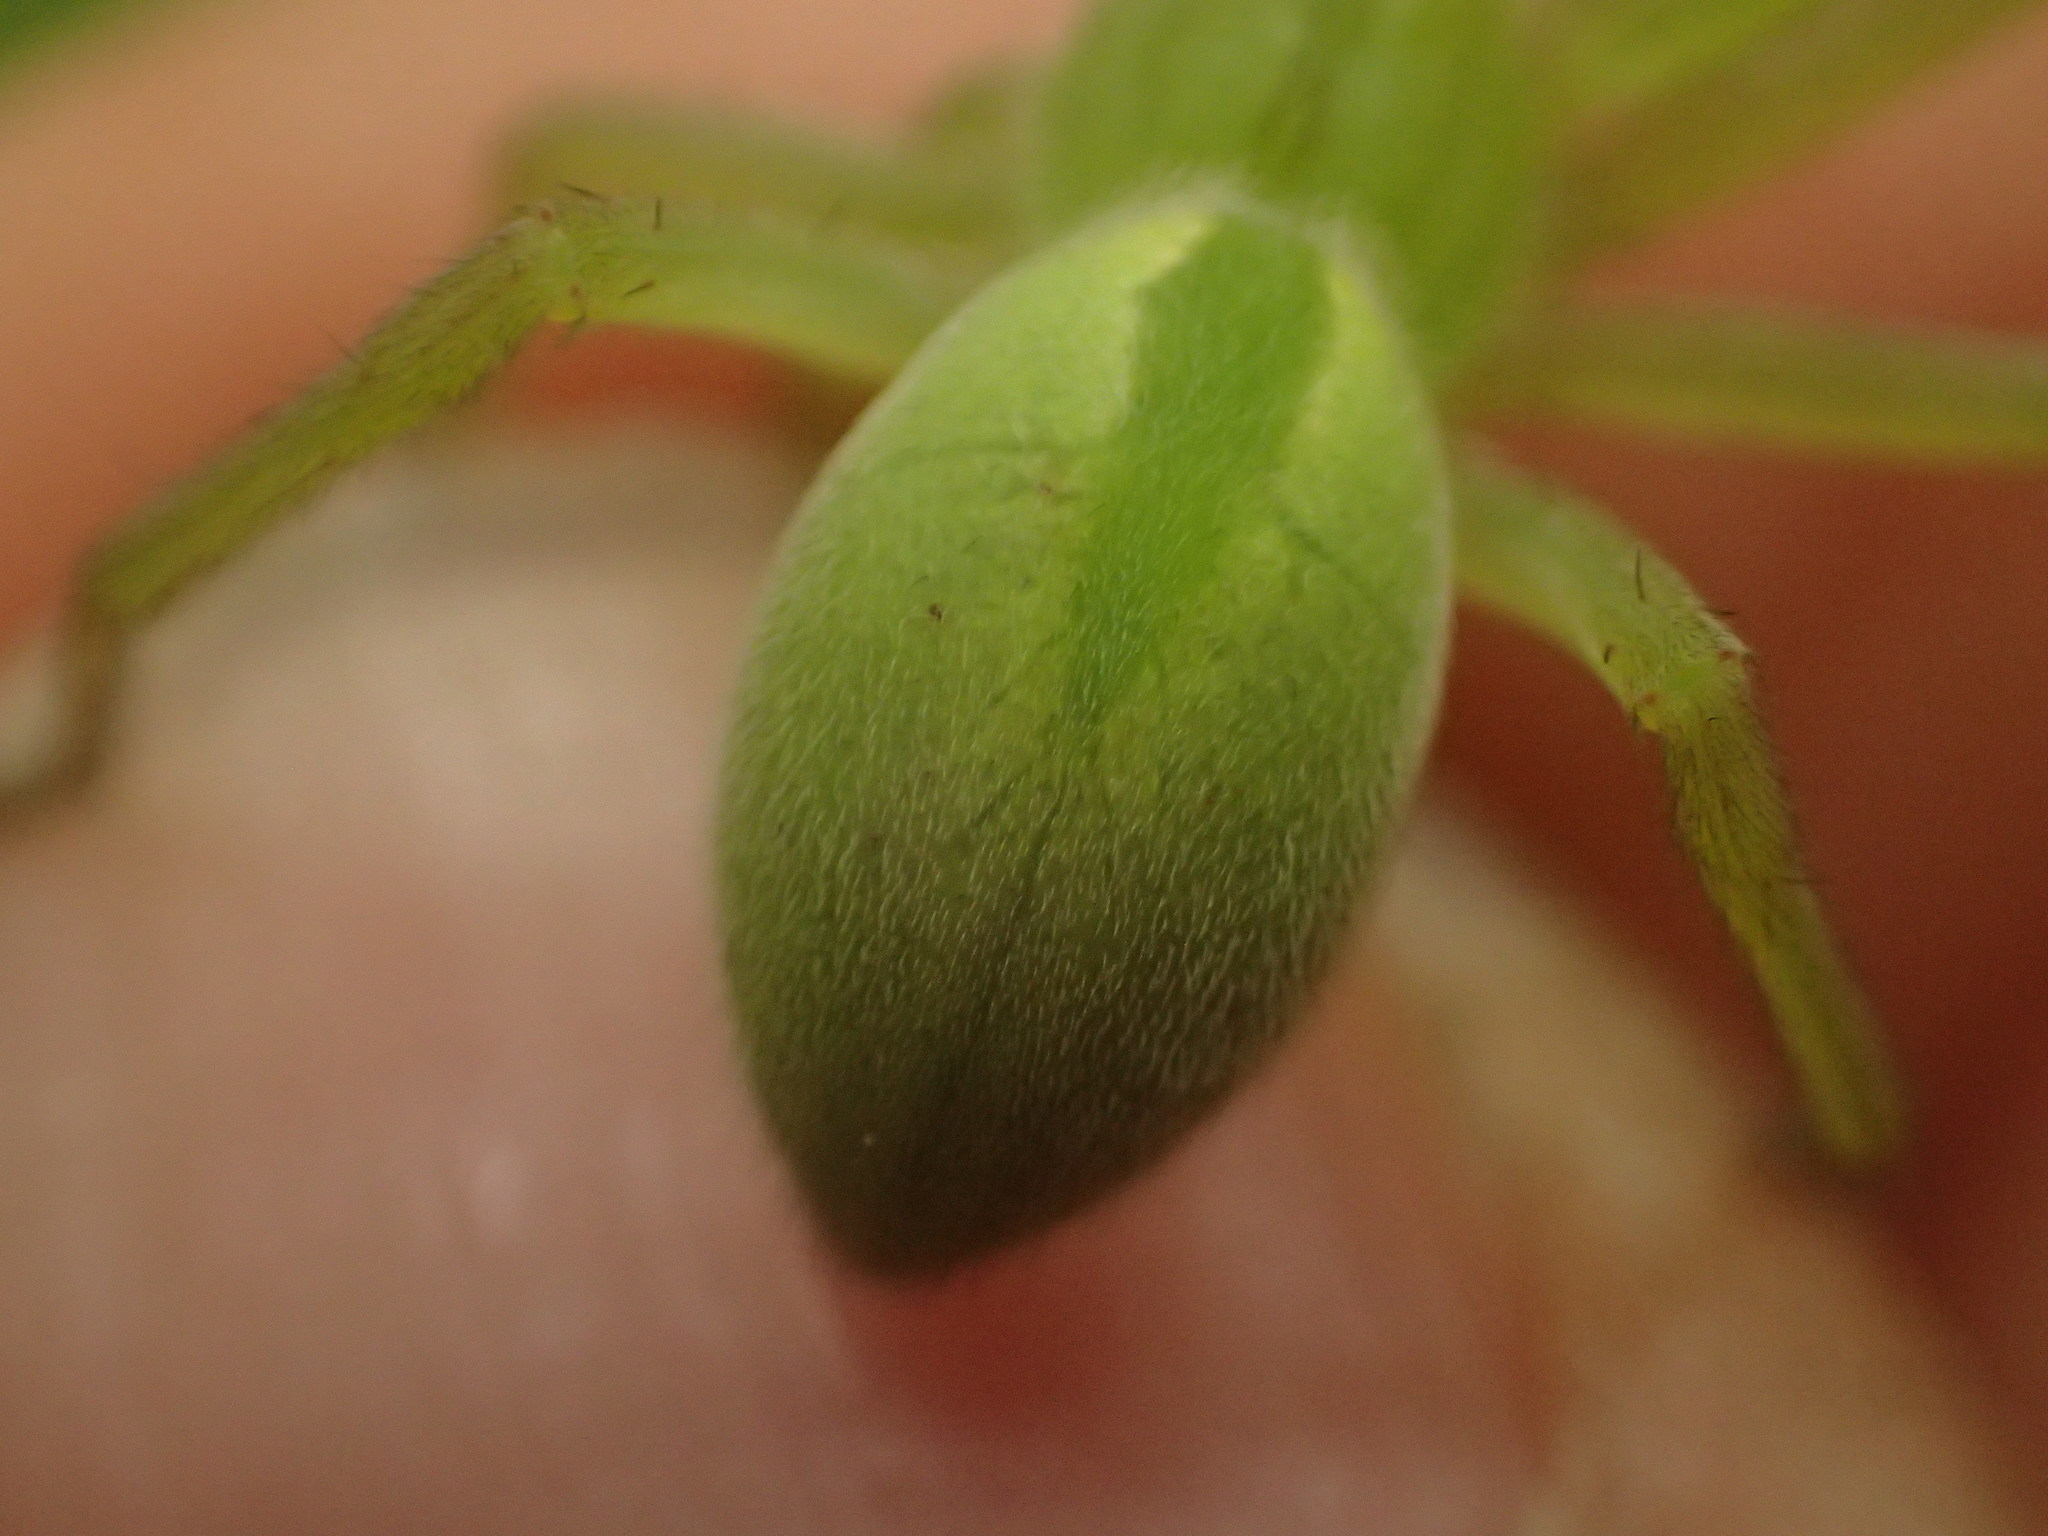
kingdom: Animalia
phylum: Arthropoda
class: Arachnida
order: Araneae
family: Sparassidae
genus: Micrommata
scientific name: Micrommata virescens
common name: Green spider
